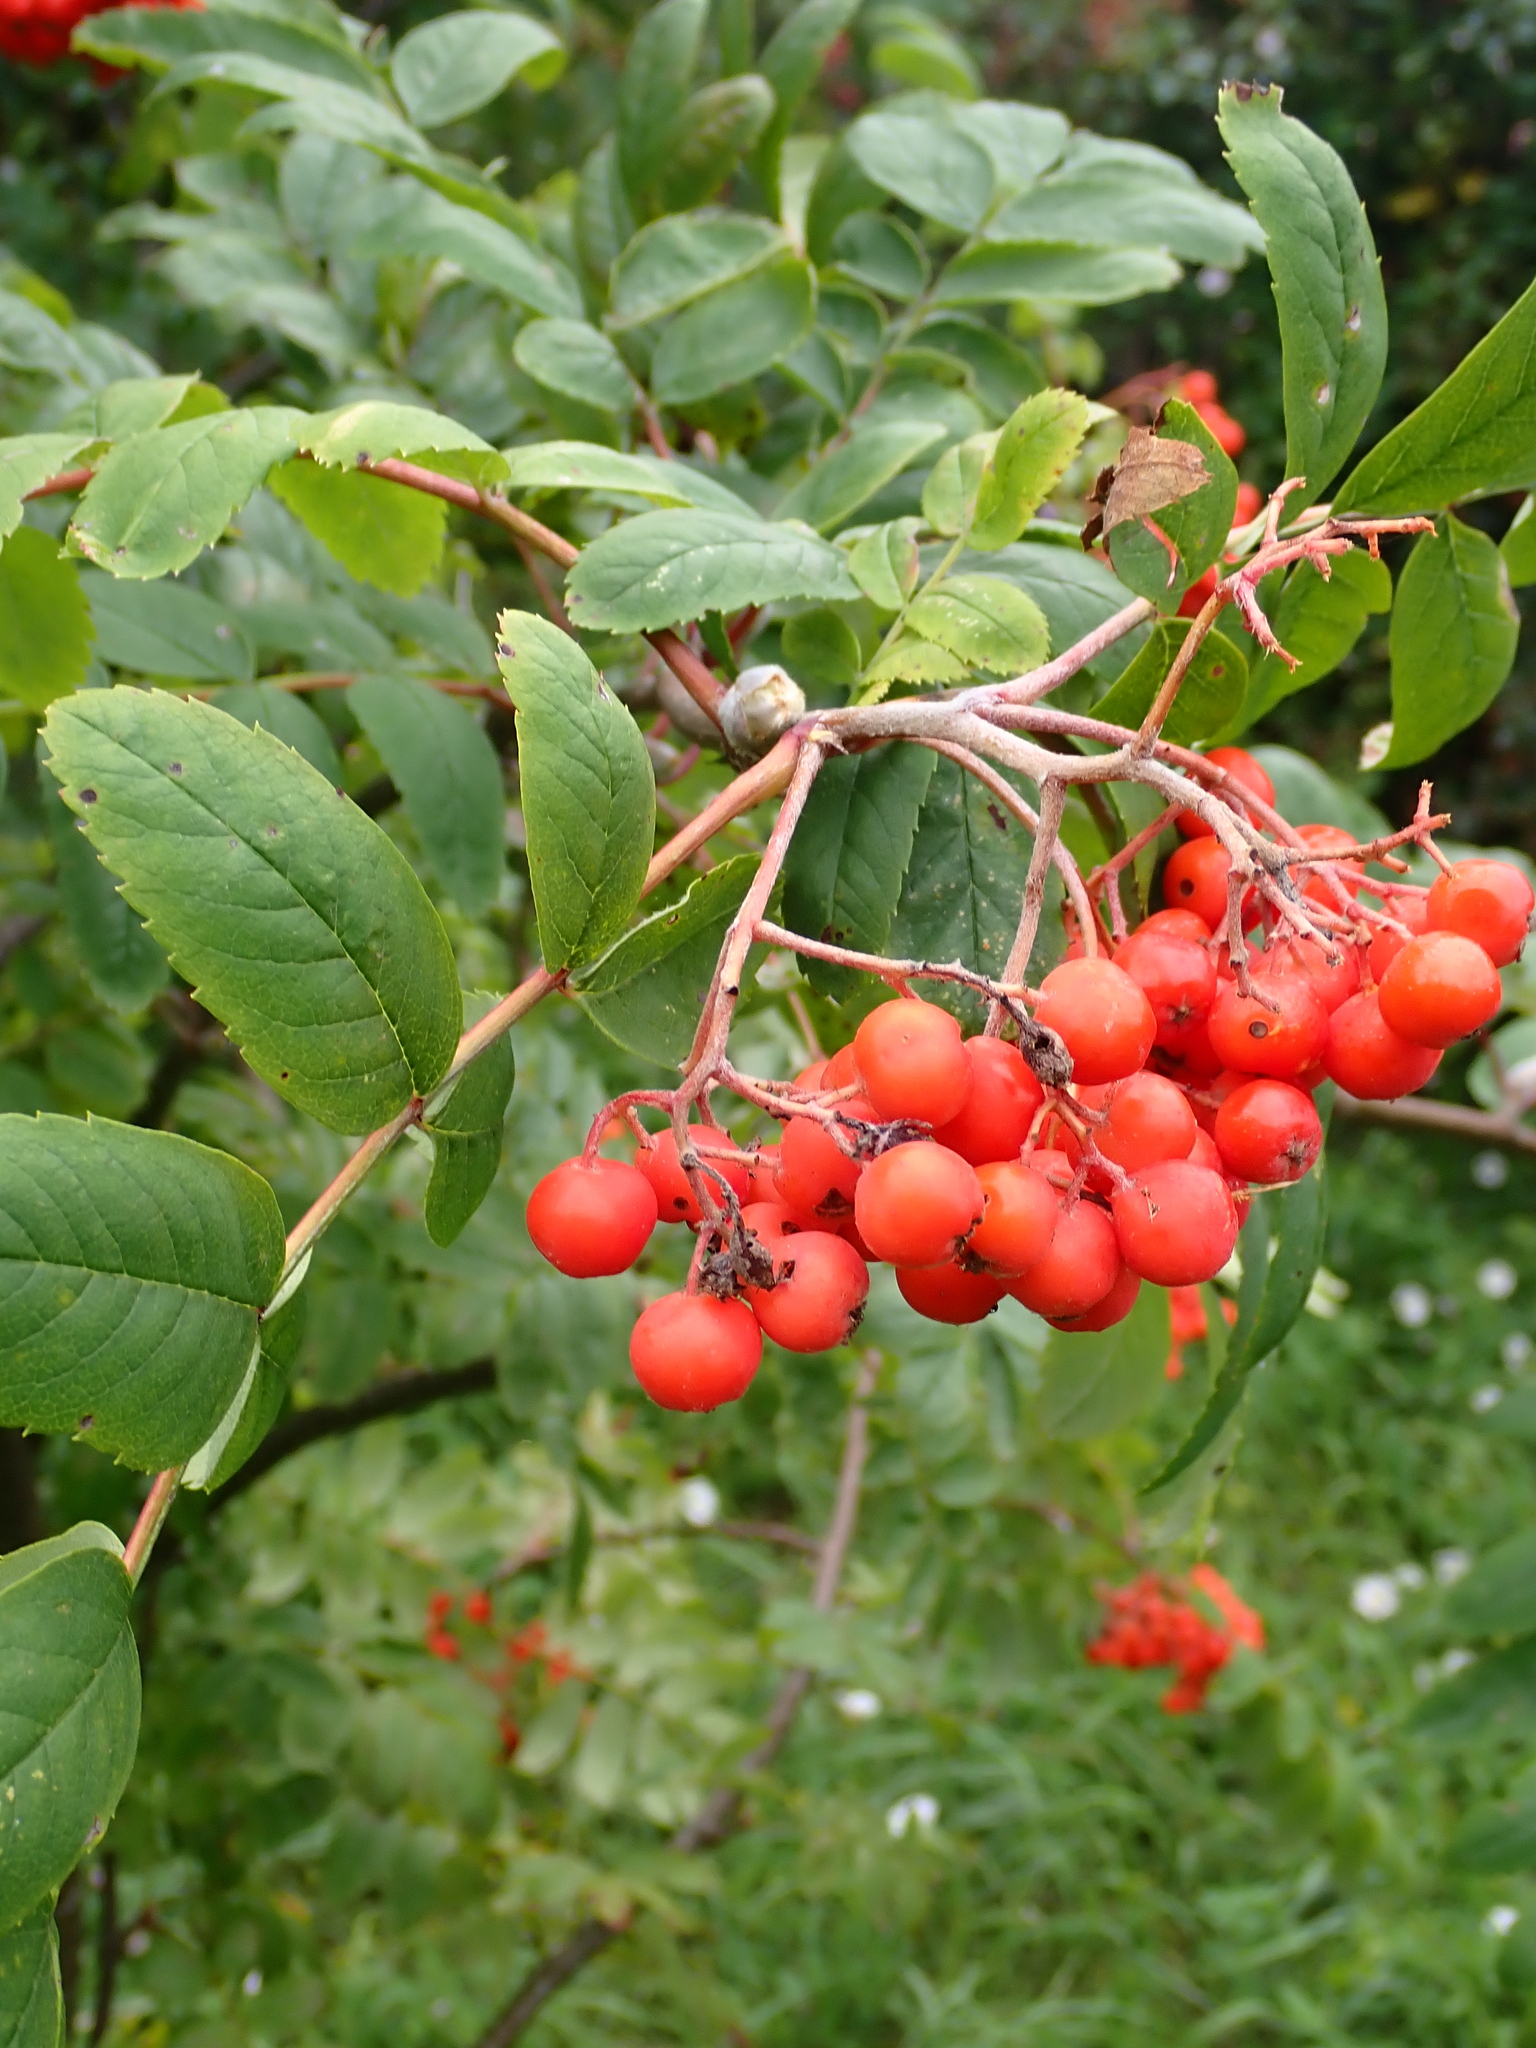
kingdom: Plantae
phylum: Tracheophyta
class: Magnoliopsida
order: Rosales
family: Rosaceae
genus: Sorbus
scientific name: Sorbus aucuparia
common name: Rowan
